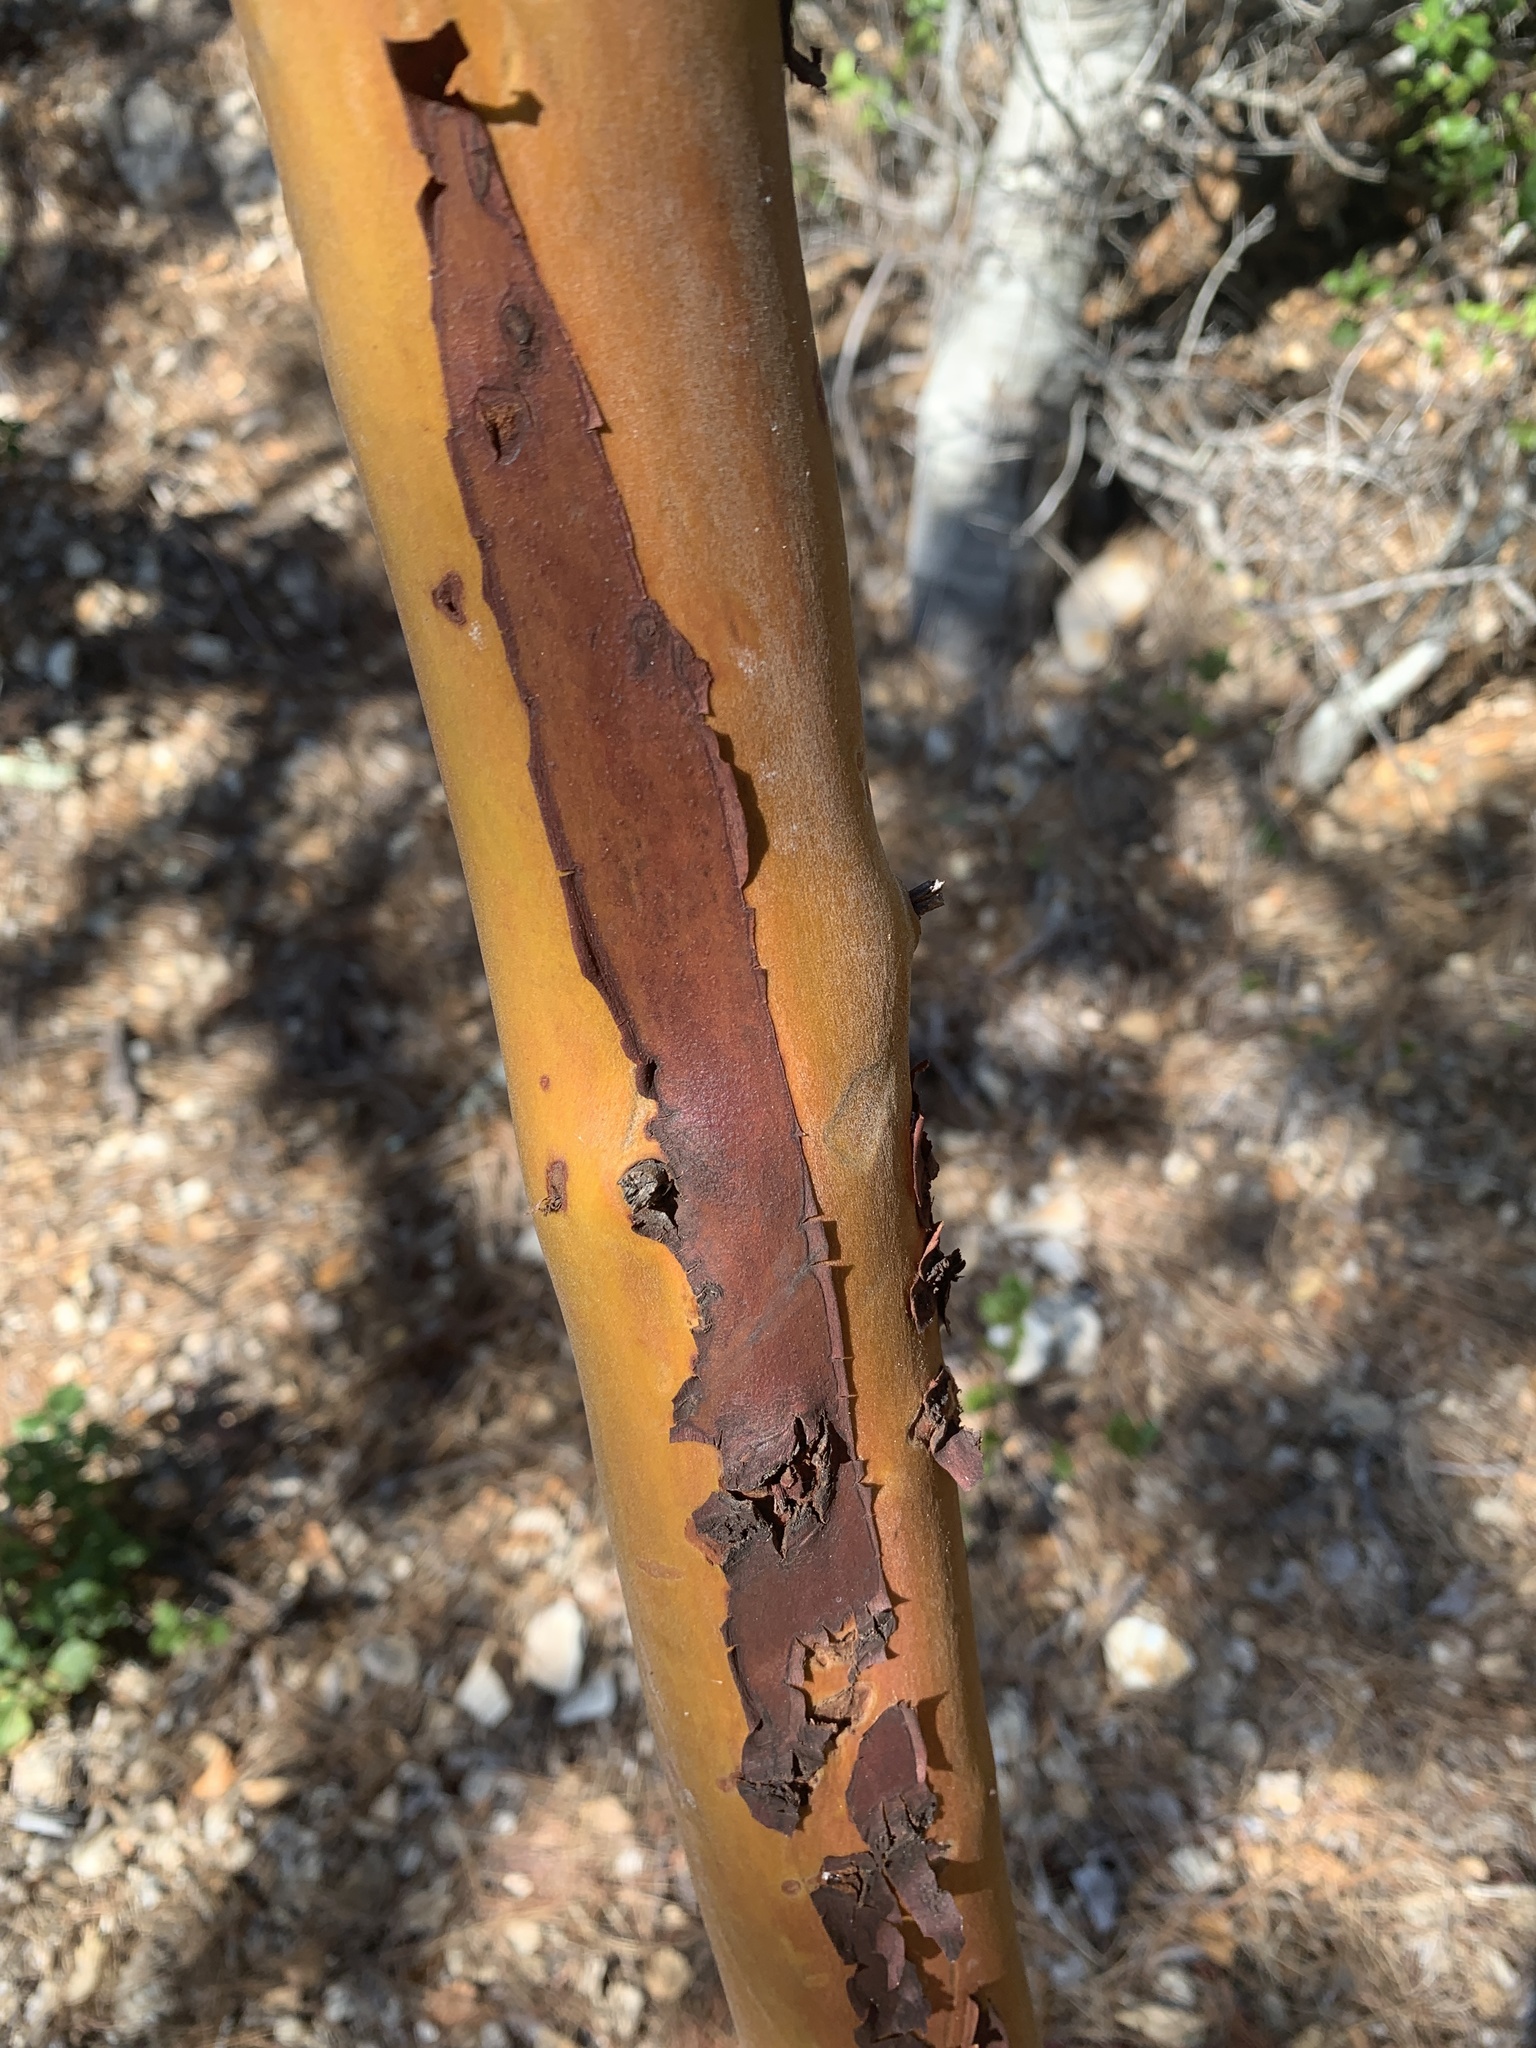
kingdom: Plantae
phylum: Tracheophyta
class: Magnoliopsida
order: Ericales
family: Ericaceae
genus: Arbutus
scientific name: Arbutus menziesii
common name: Pacific madrone
